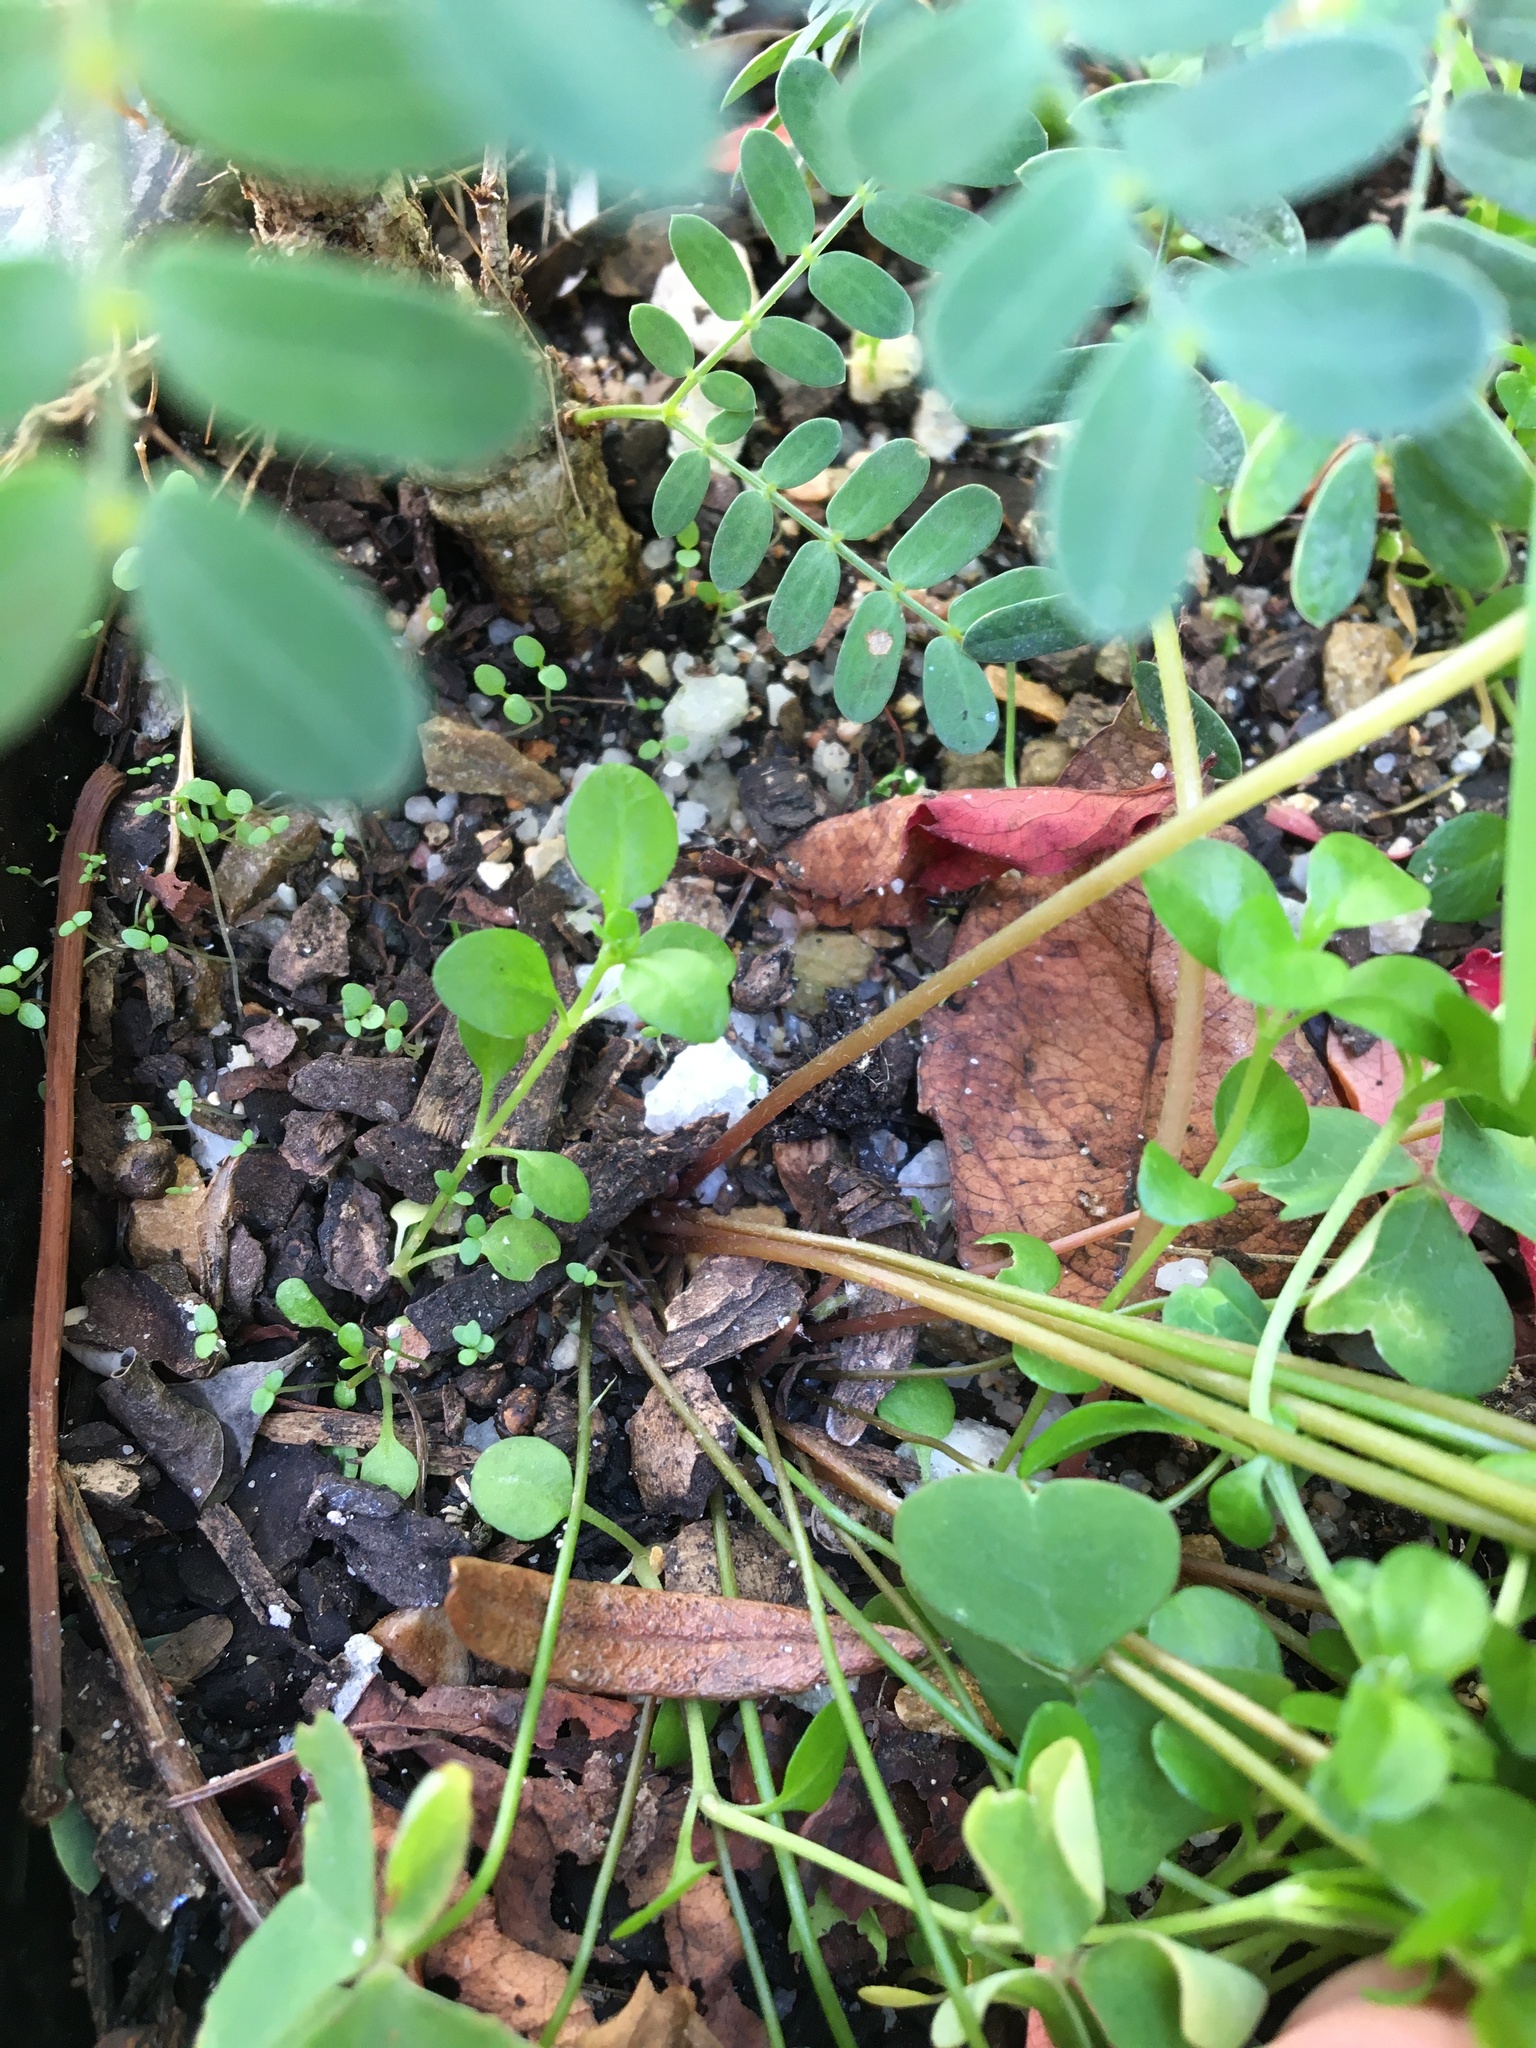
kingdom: Plantae
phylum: Tracheophyta
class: Magnoliopsida
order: Oxalidales
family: Oxalidaceae
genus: Oxalis
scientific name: Oxalis latifolia
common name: Garden pink-sorrel
